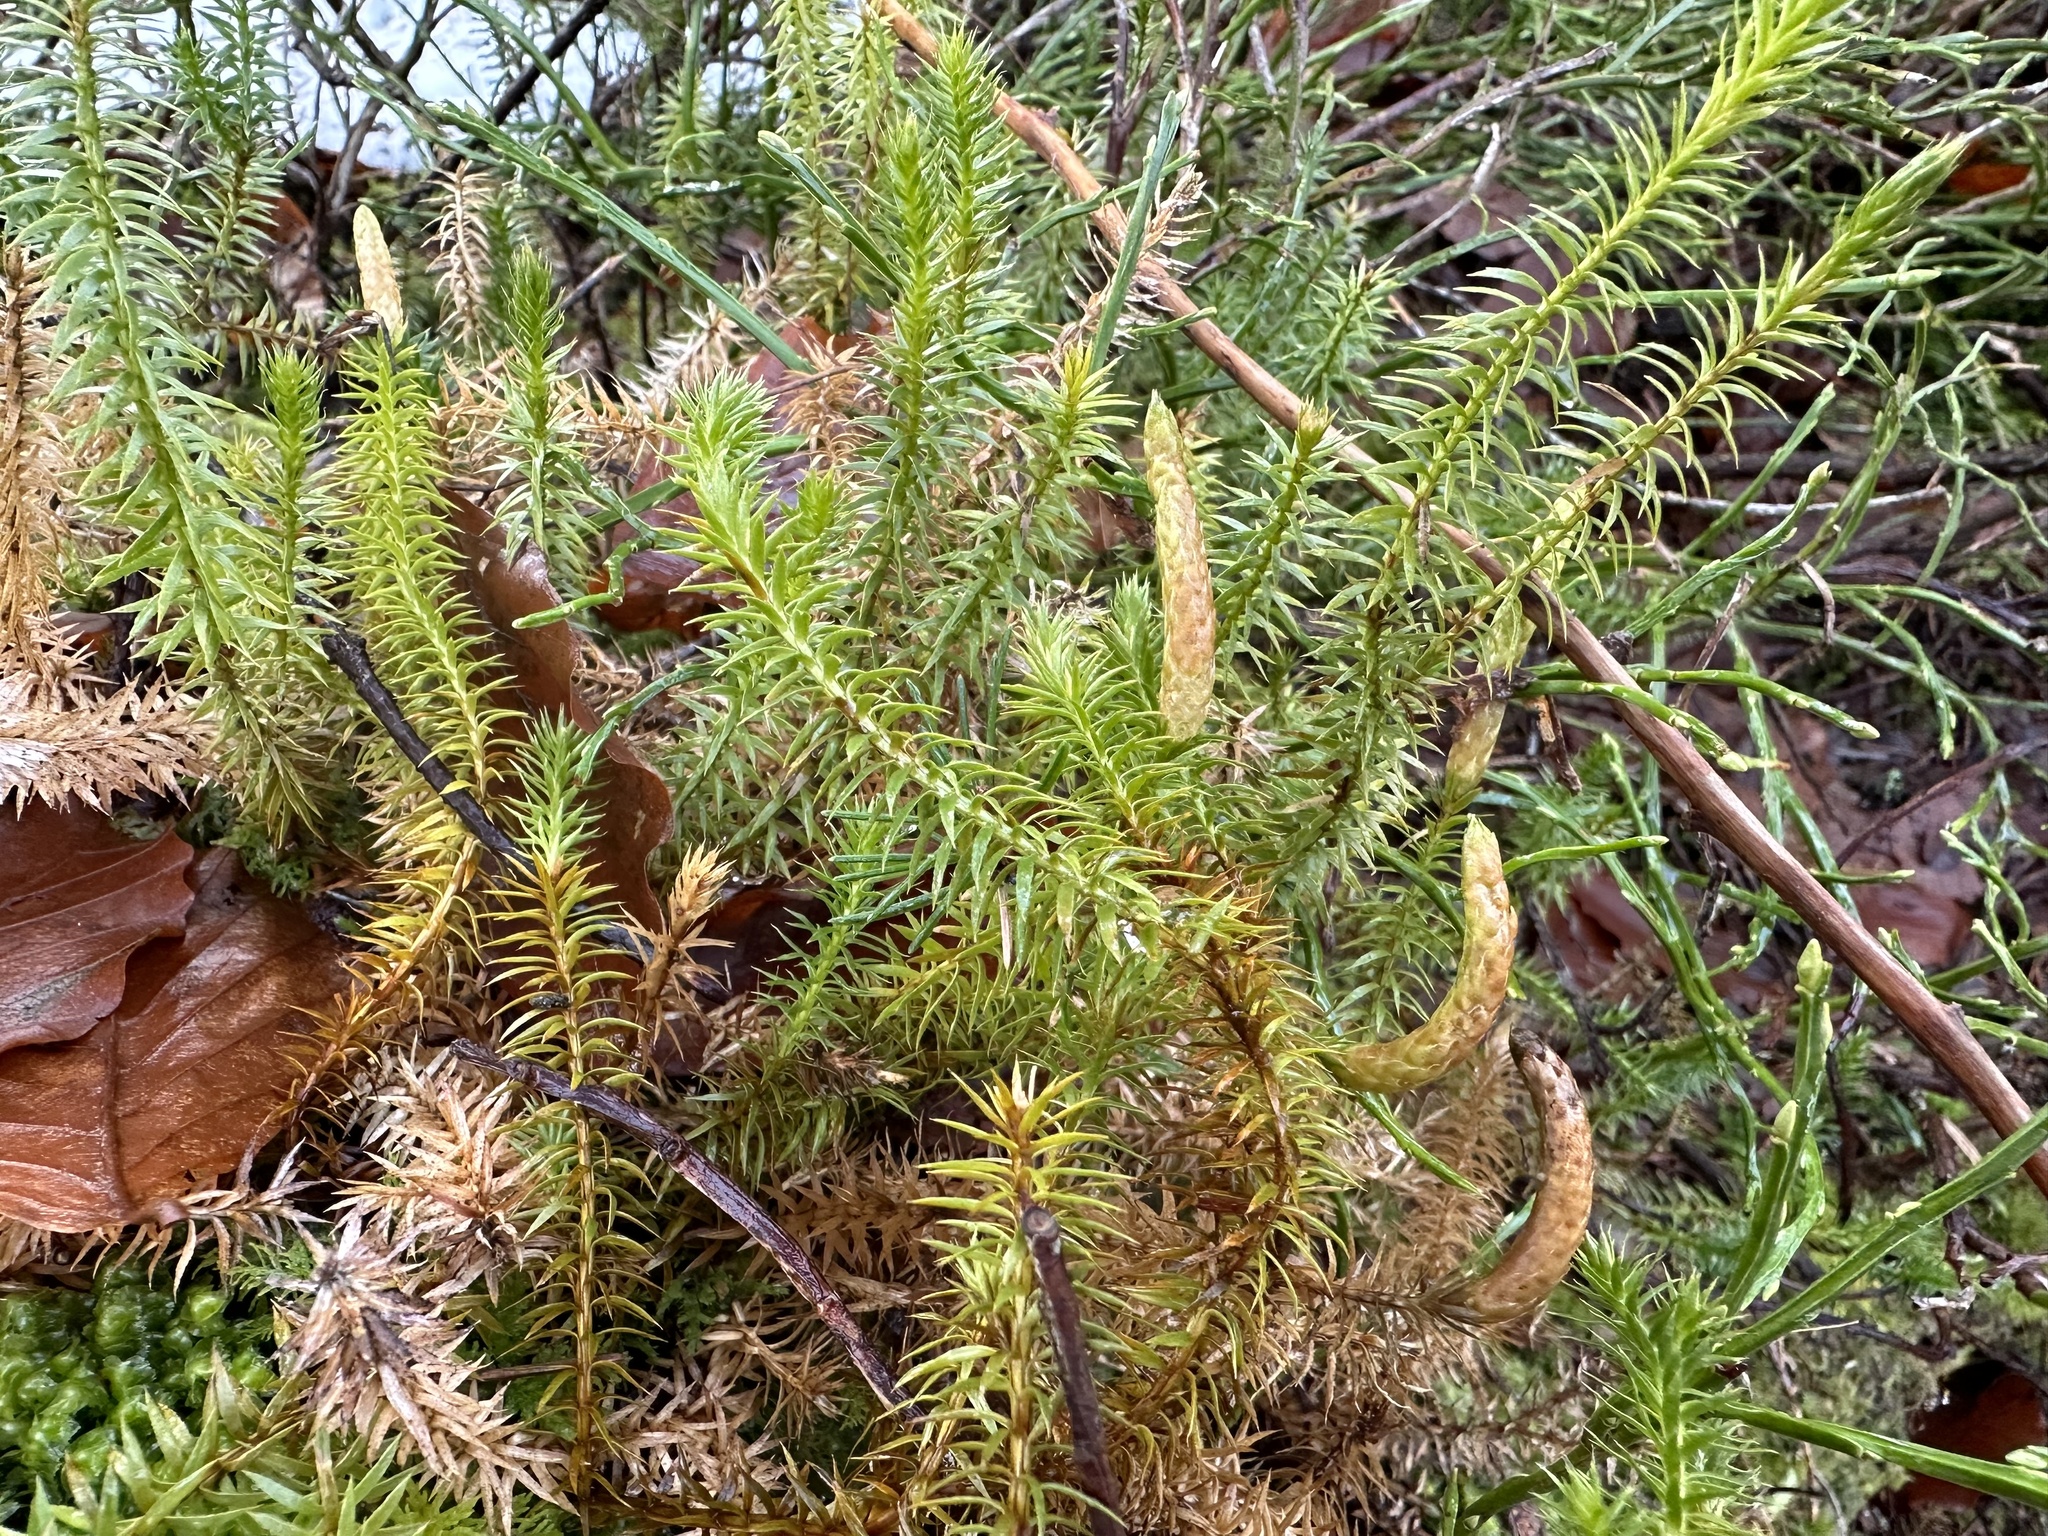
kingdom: Plantae
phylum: Tracheophyta
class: Lycopodiopsida
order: Lycopodiales
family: Lycopodiaceae
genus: Spinulum
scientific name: Spinulum annotinum
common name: Interrupted club-moss
